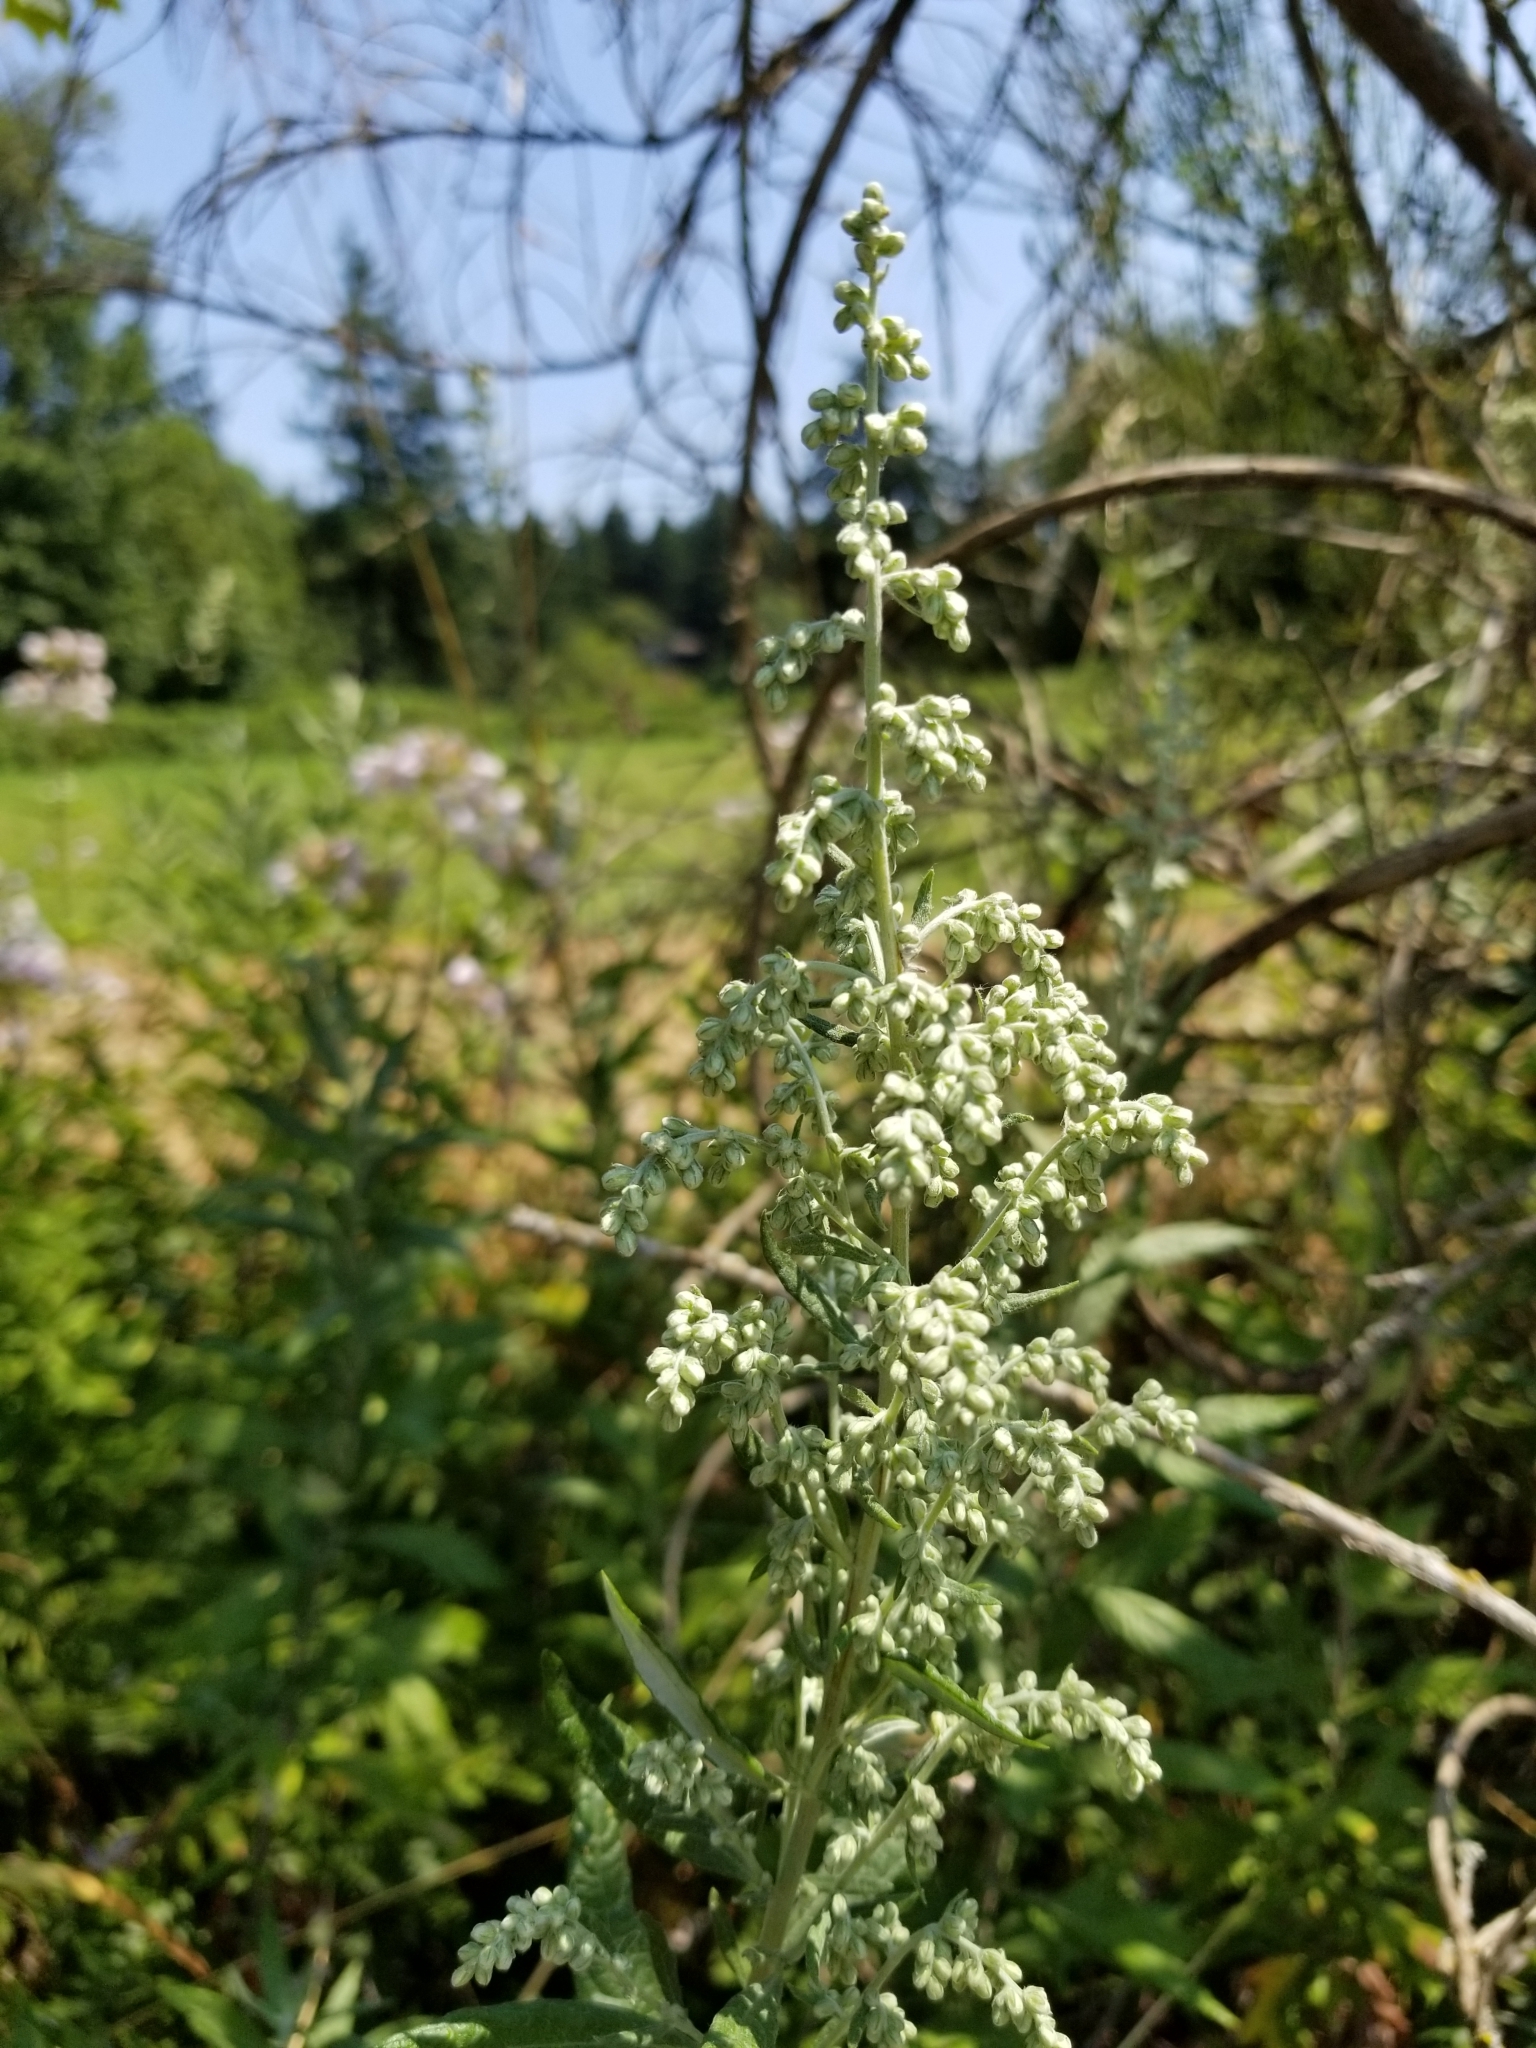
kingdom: Plantae
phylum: Tracheophyta
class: Magnoliopsida
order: Asterales
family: Asteraceae
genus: Artemisia
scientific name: Artemisia douglasiana
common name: Northwest mugwort
